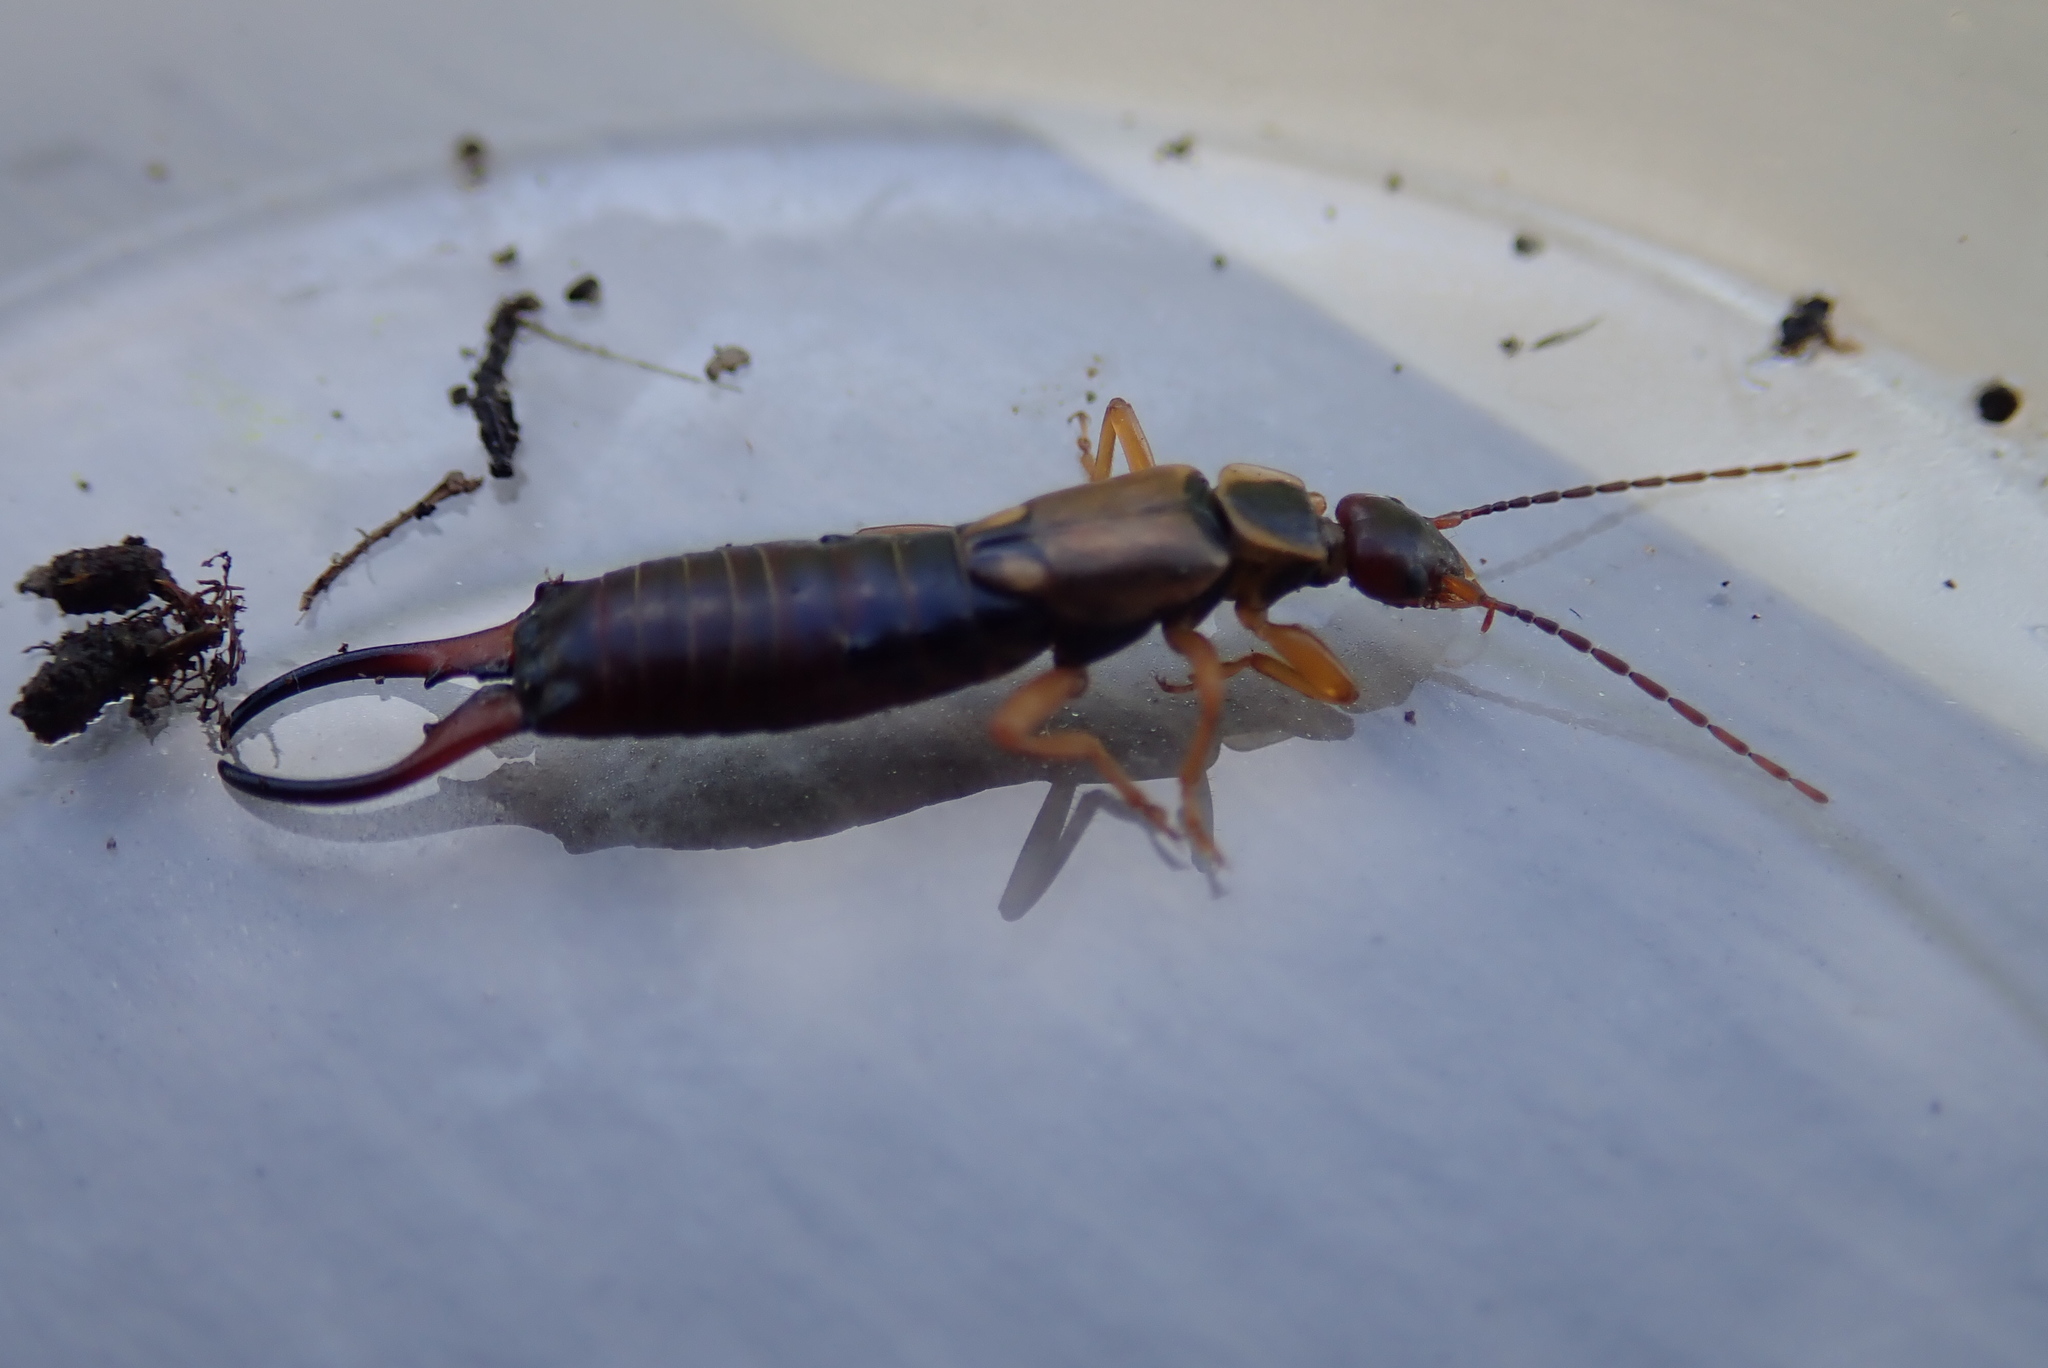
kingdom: Animalia
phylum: Arthropoda
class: Insecta
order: Dermaptera
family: Forficulidae
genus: Forficula
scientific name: Forficula
